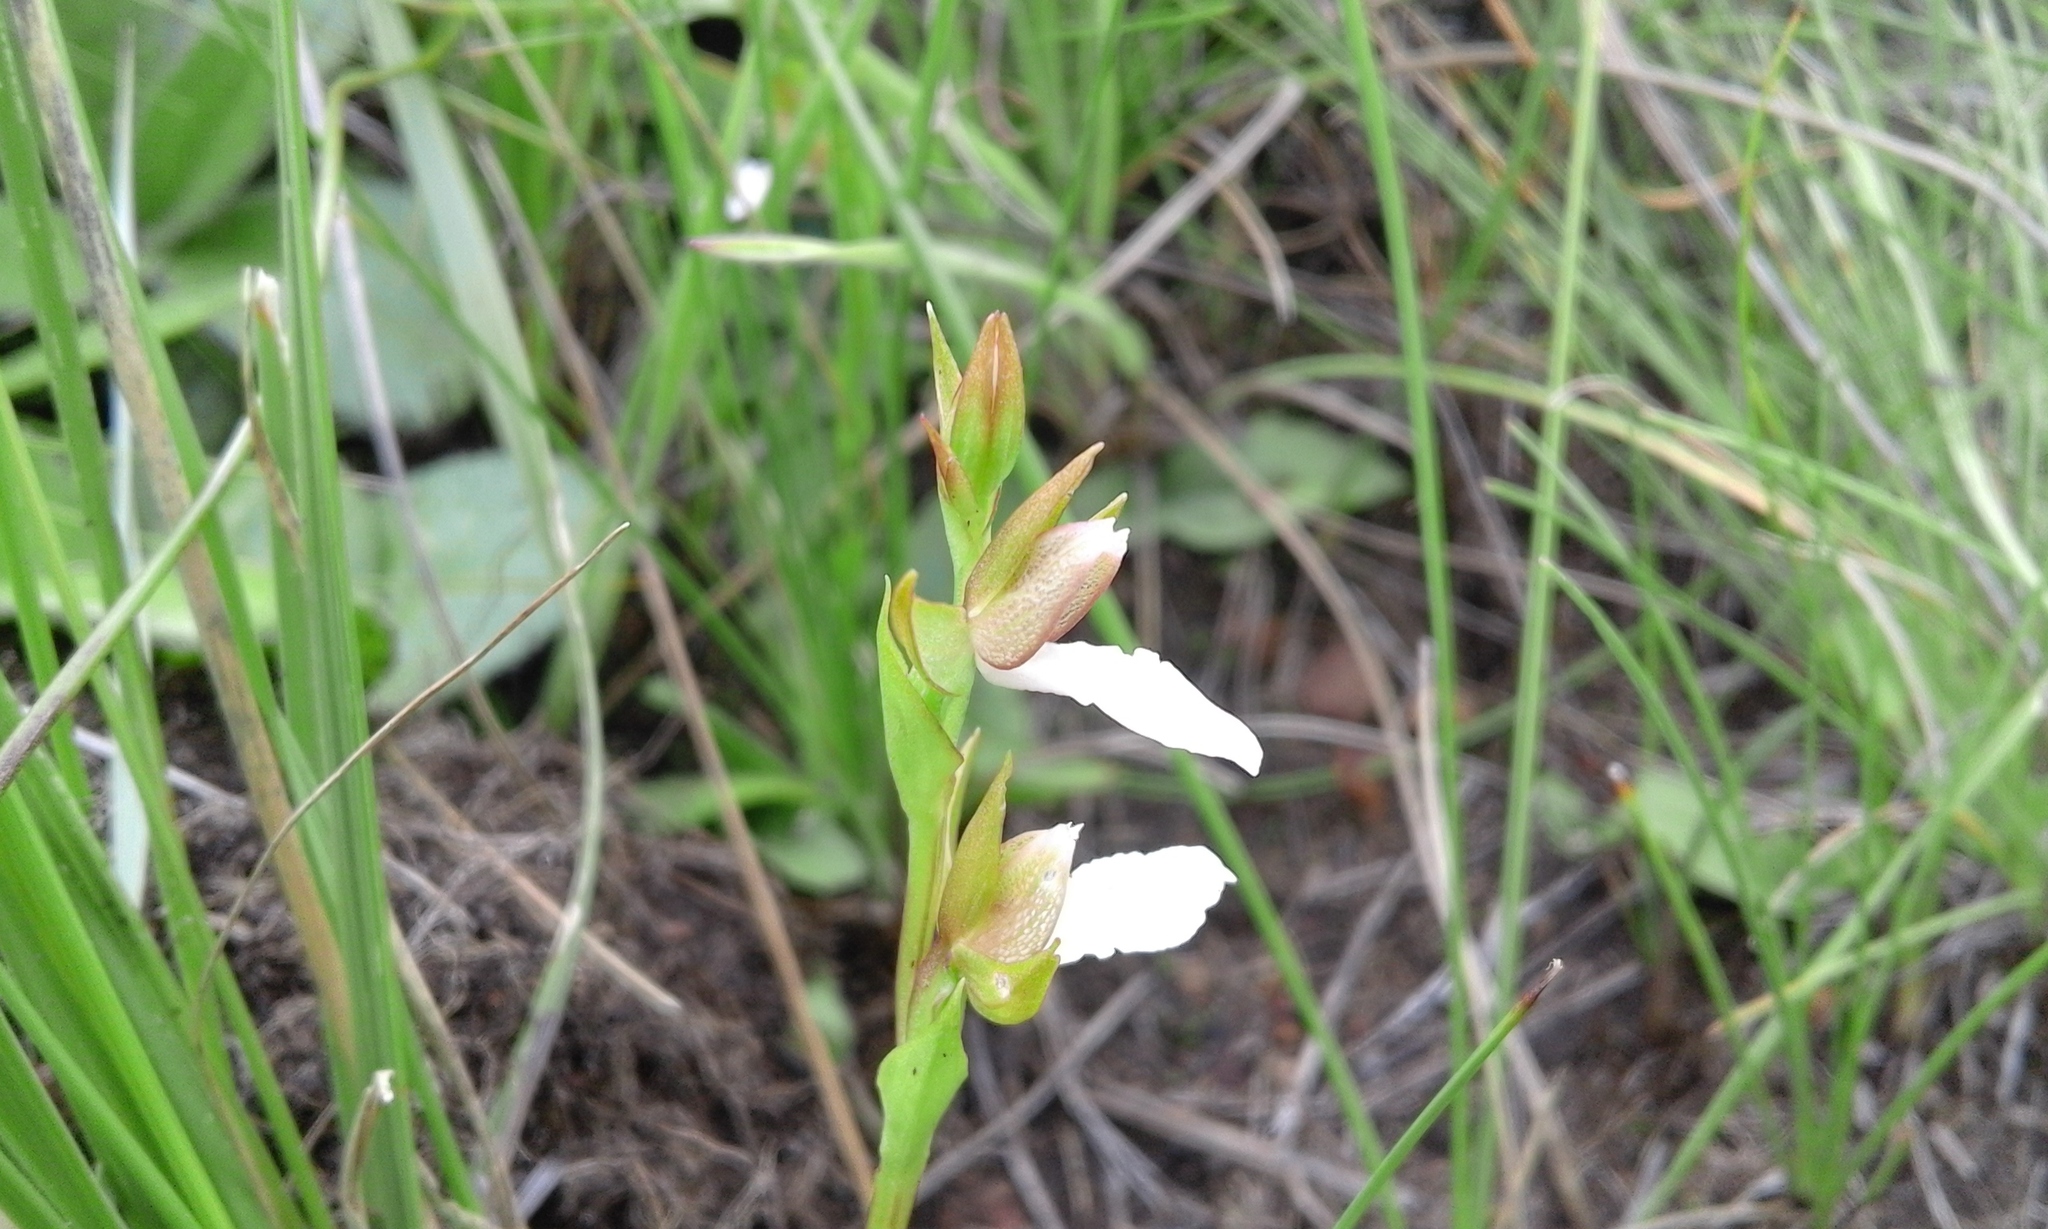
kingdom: Plantae
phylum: Tracheophyta
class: Liliopsida
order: Asparagales
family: Orchidaceae
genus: Neobolusia
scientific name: Neobolusia tysonii
